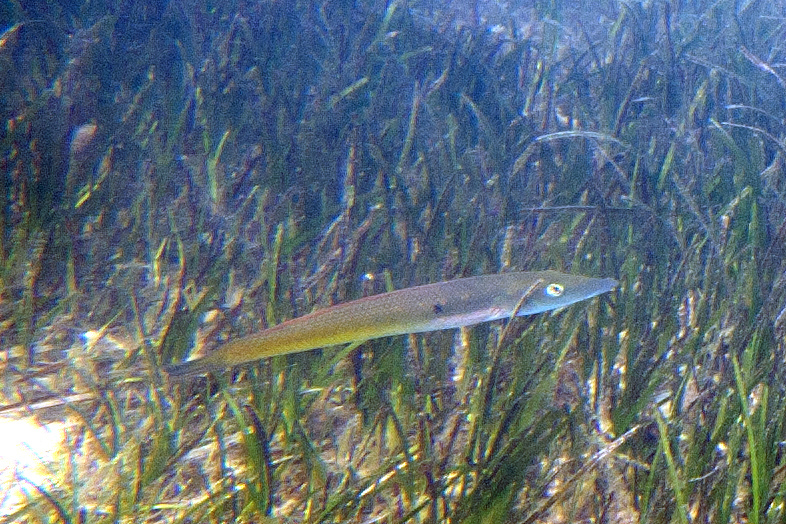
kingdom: Animalia
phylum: Chordata
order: Perciformes
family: Labridae
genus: Cheilio
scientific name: Cheilio inermis
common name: Cigar wrasse
